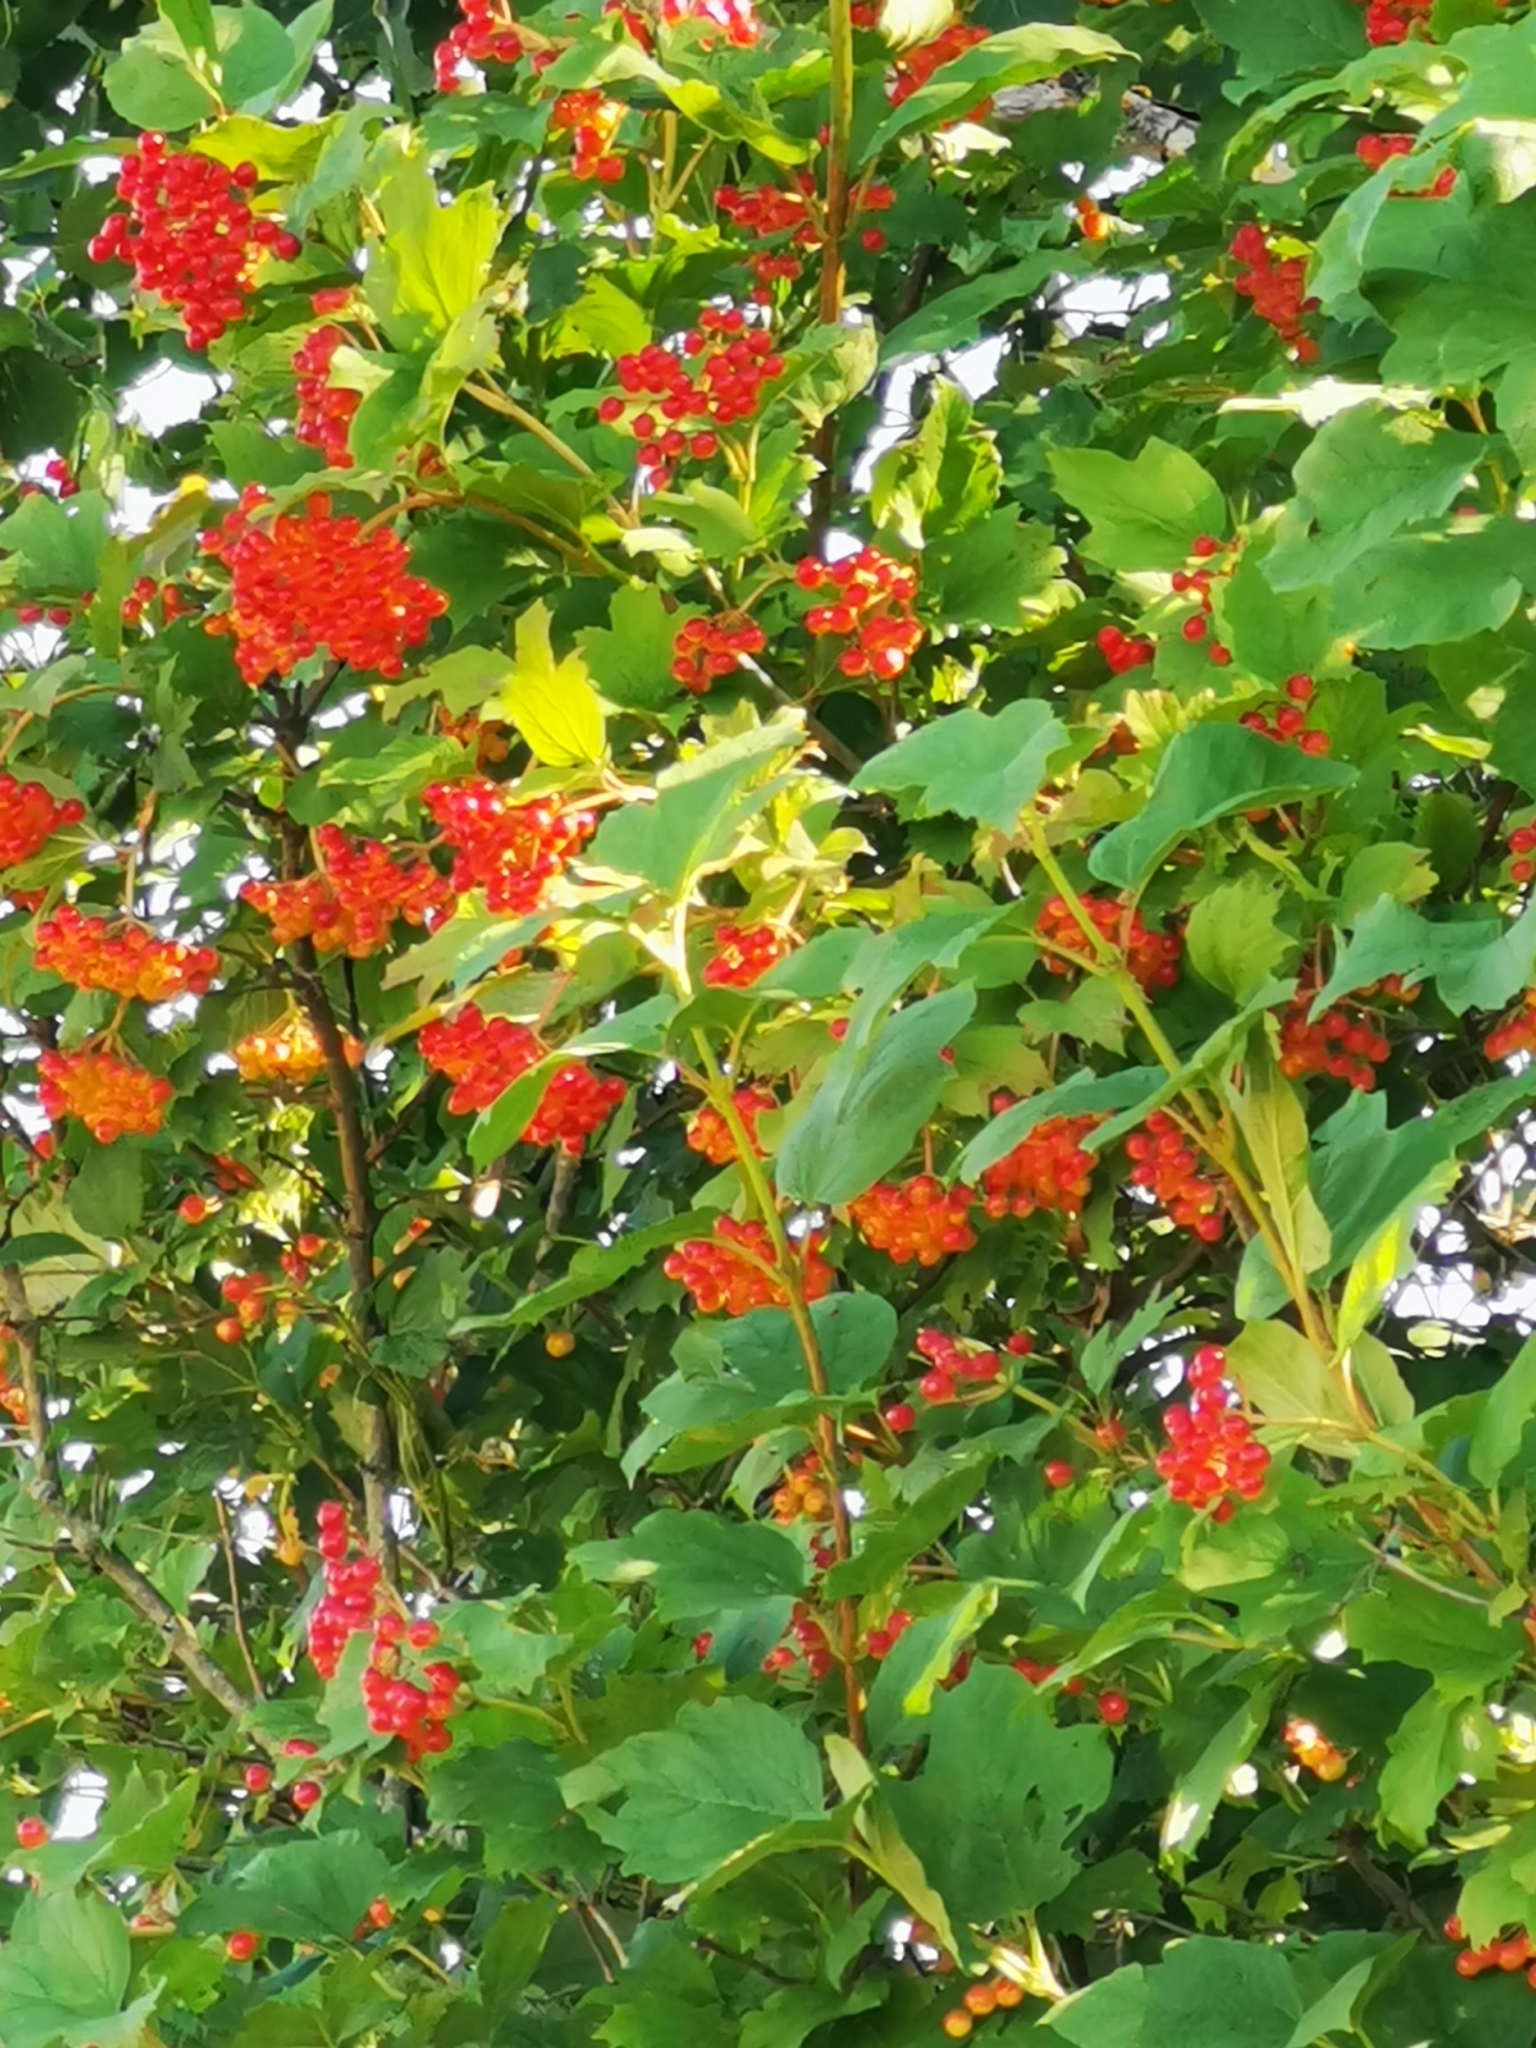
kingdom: Plantae
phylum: Tracheophyta
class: Magnoliopsida
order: Dipsacales
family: Viburnaceae
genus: Viburnum
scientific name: Viburnum opulus
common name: Guelder-rose
